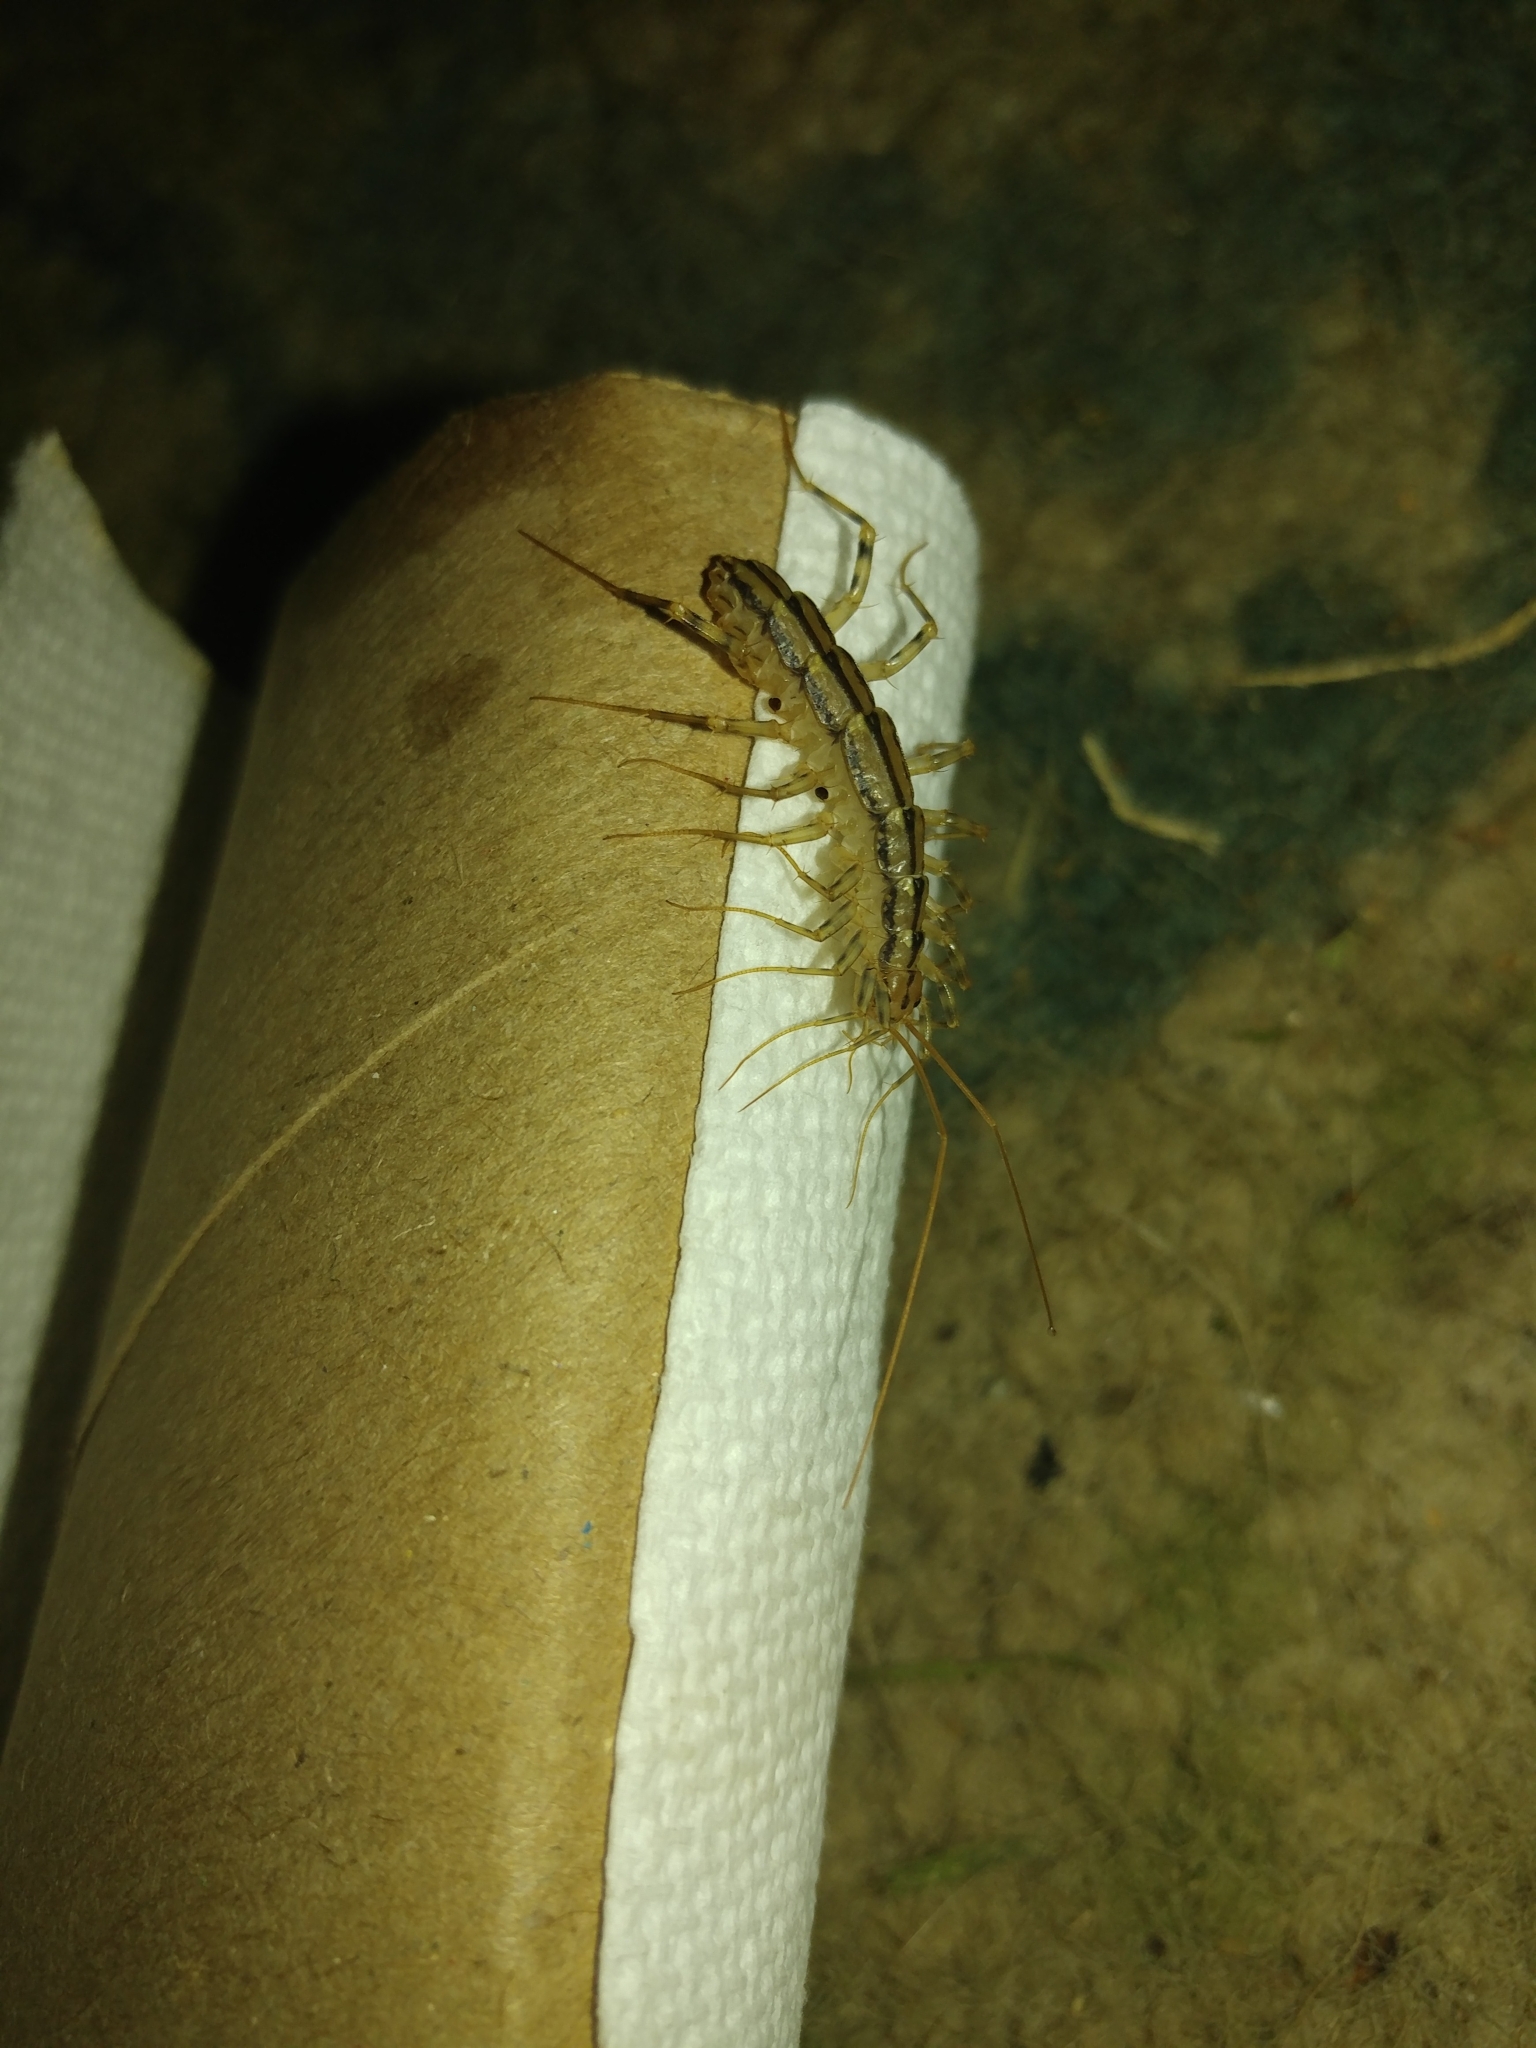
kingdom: Animalia
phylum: Arthropoda
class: Chilopoda
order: Scutigeromorpha
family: Scutigeridae
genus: Scutigera
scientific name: Scutigera coleoptrata
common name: House centipede
